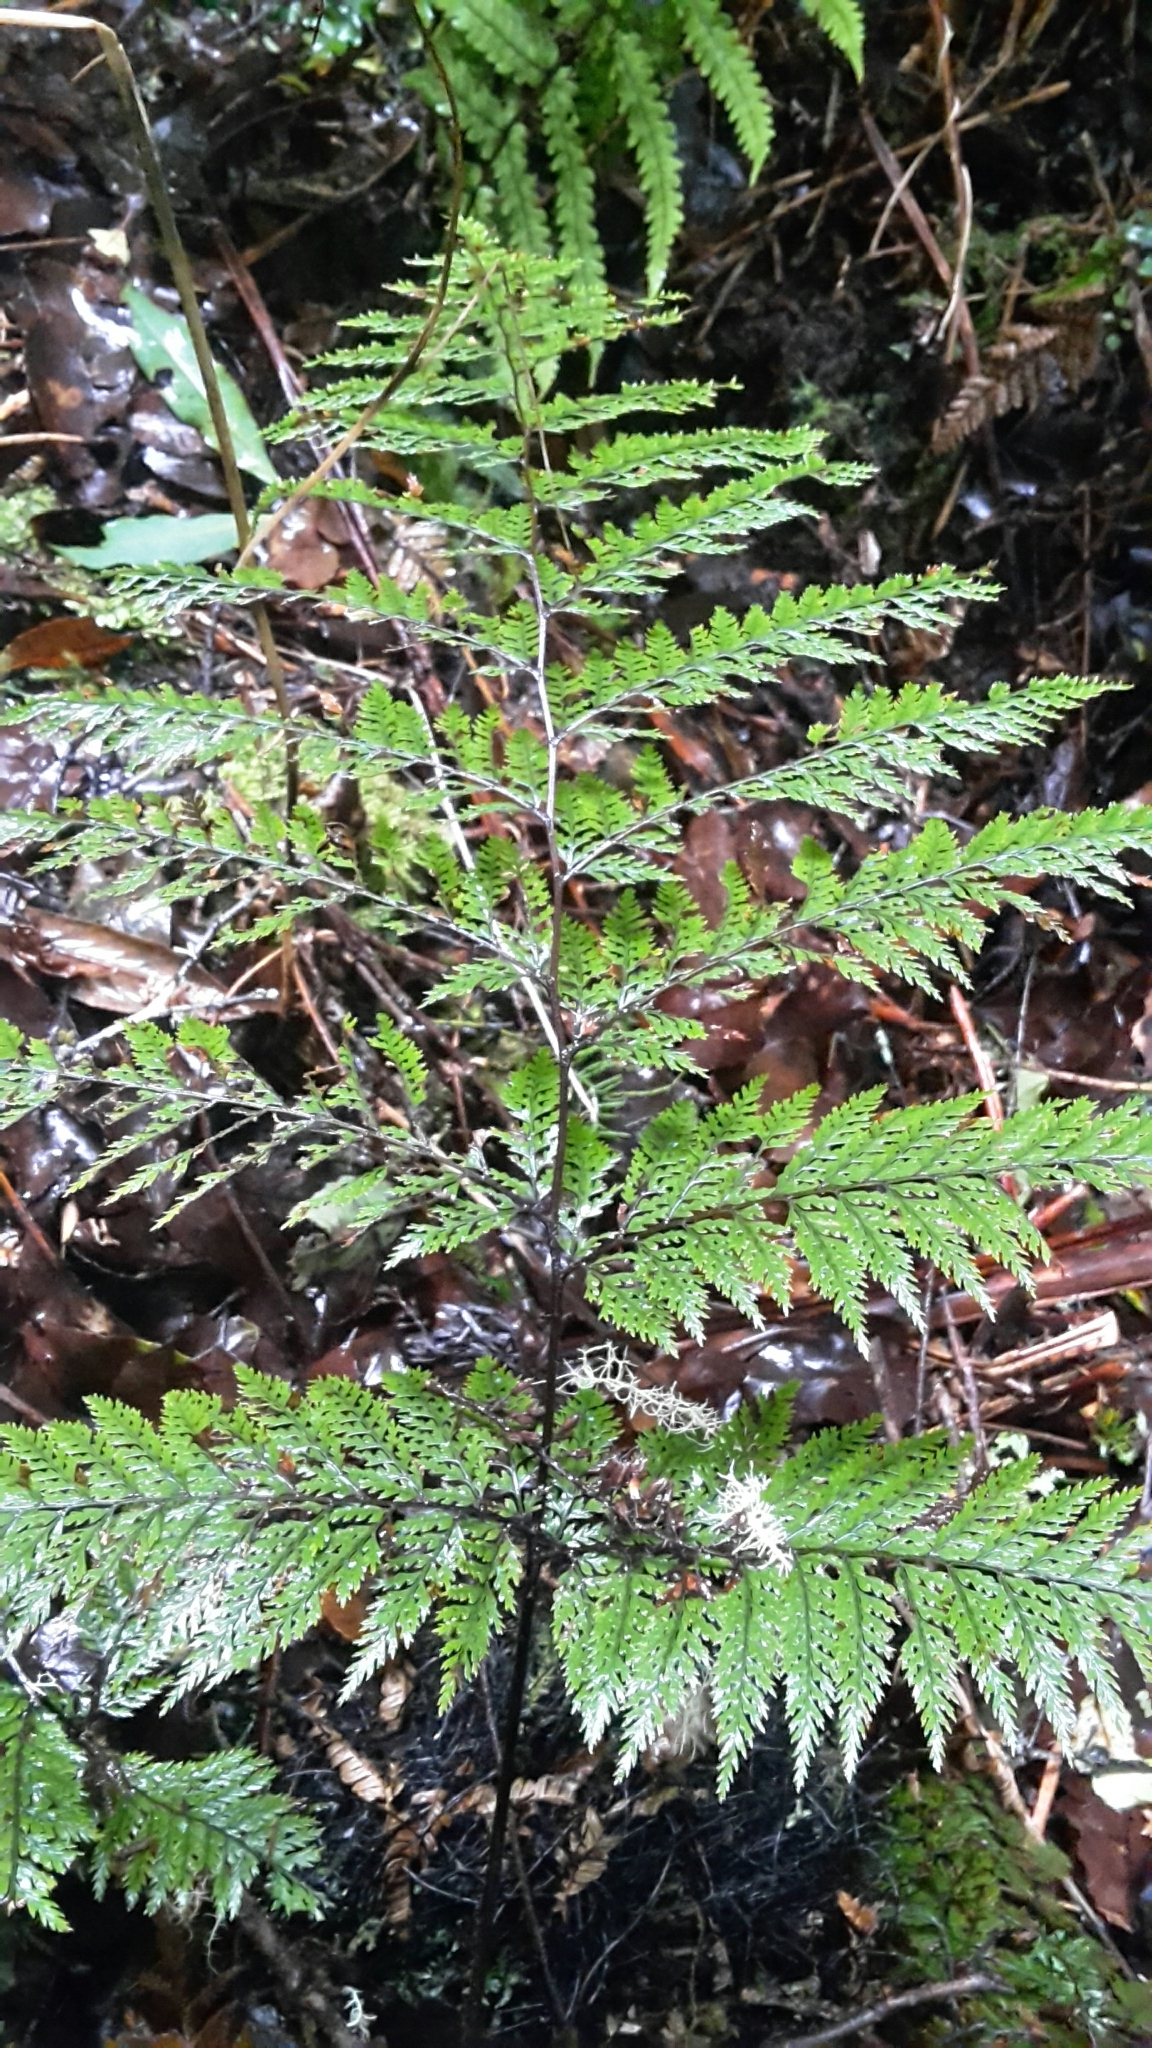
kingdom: Plantae
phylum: Tracheophyta
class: Polypodiopsida
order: Polypodiales
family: Dennstaedtiaceae
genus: Dennstaedtia
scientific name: Dennstaedtia novae-zelandiae
